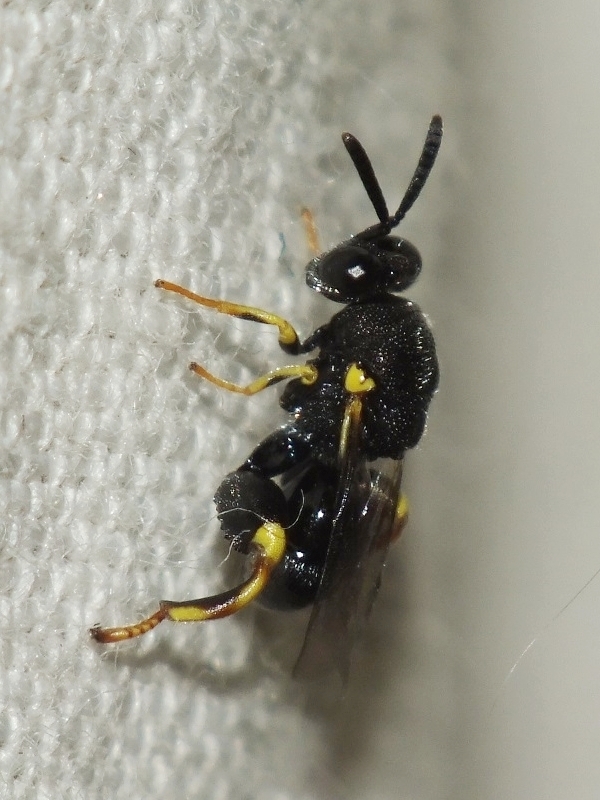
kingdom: Animalia
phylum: Arthropoda
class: Insecta
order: Hymenoptera
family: Chalcididae
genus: Brachymeria
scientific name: Brachymeria tibialis
